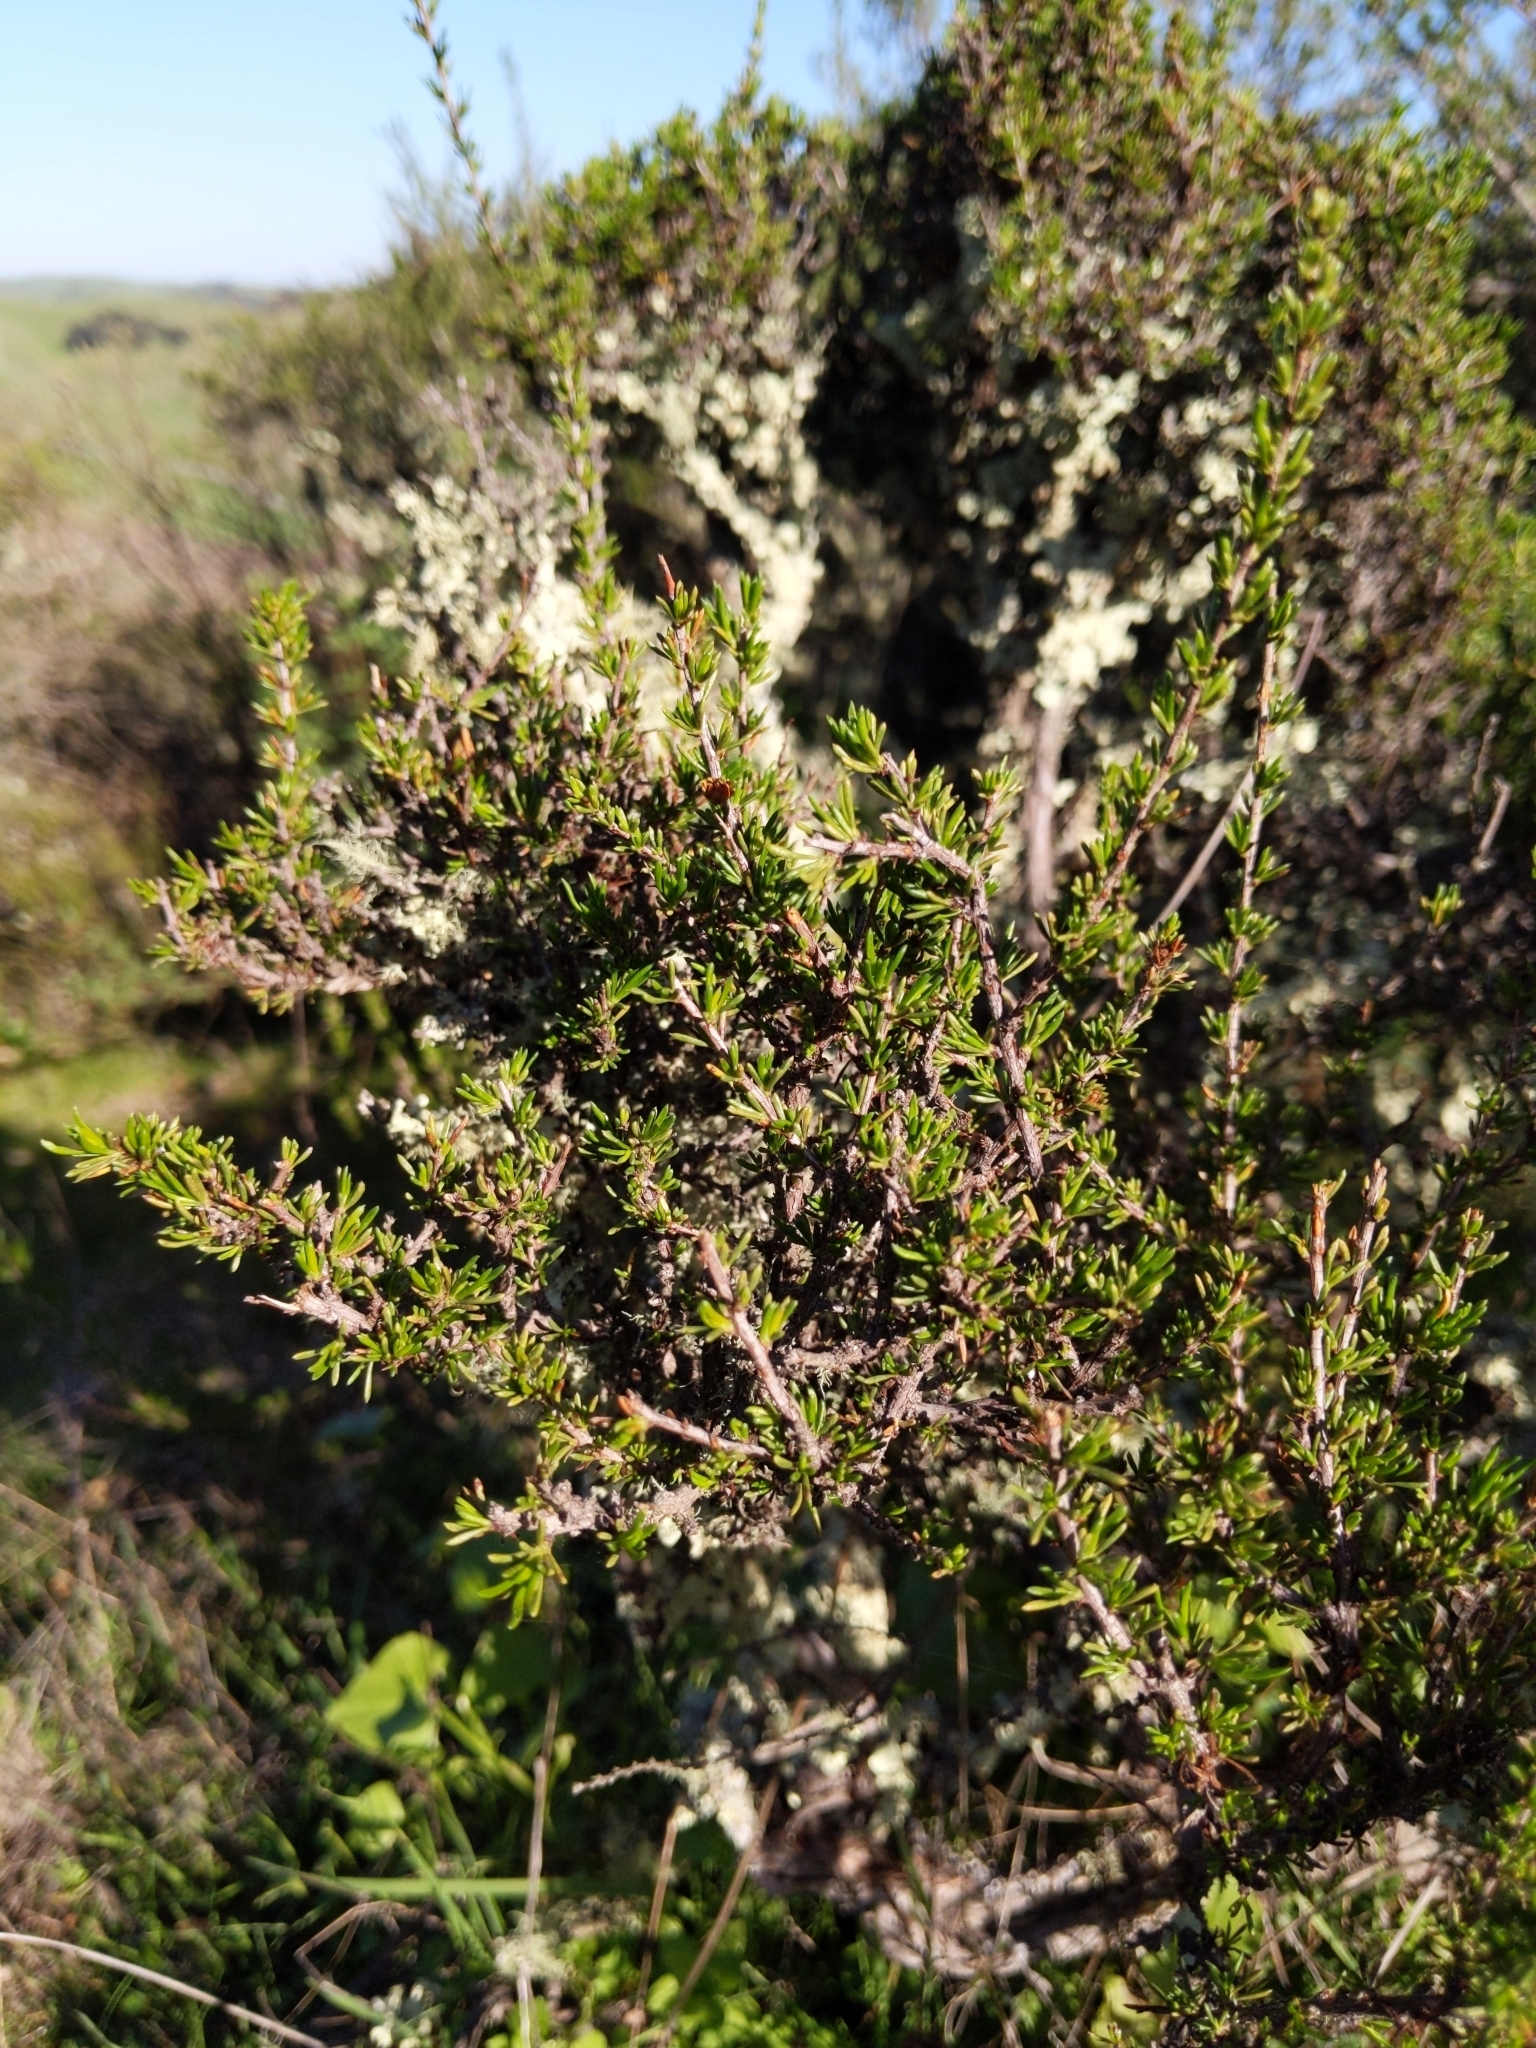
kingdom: Plantae
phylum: Tracheophyta
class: Magnoliopsida
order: Rosales
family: Rosaceae
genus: Adenostoma
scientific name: Adenostoma fasciculatum
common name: Chamise
